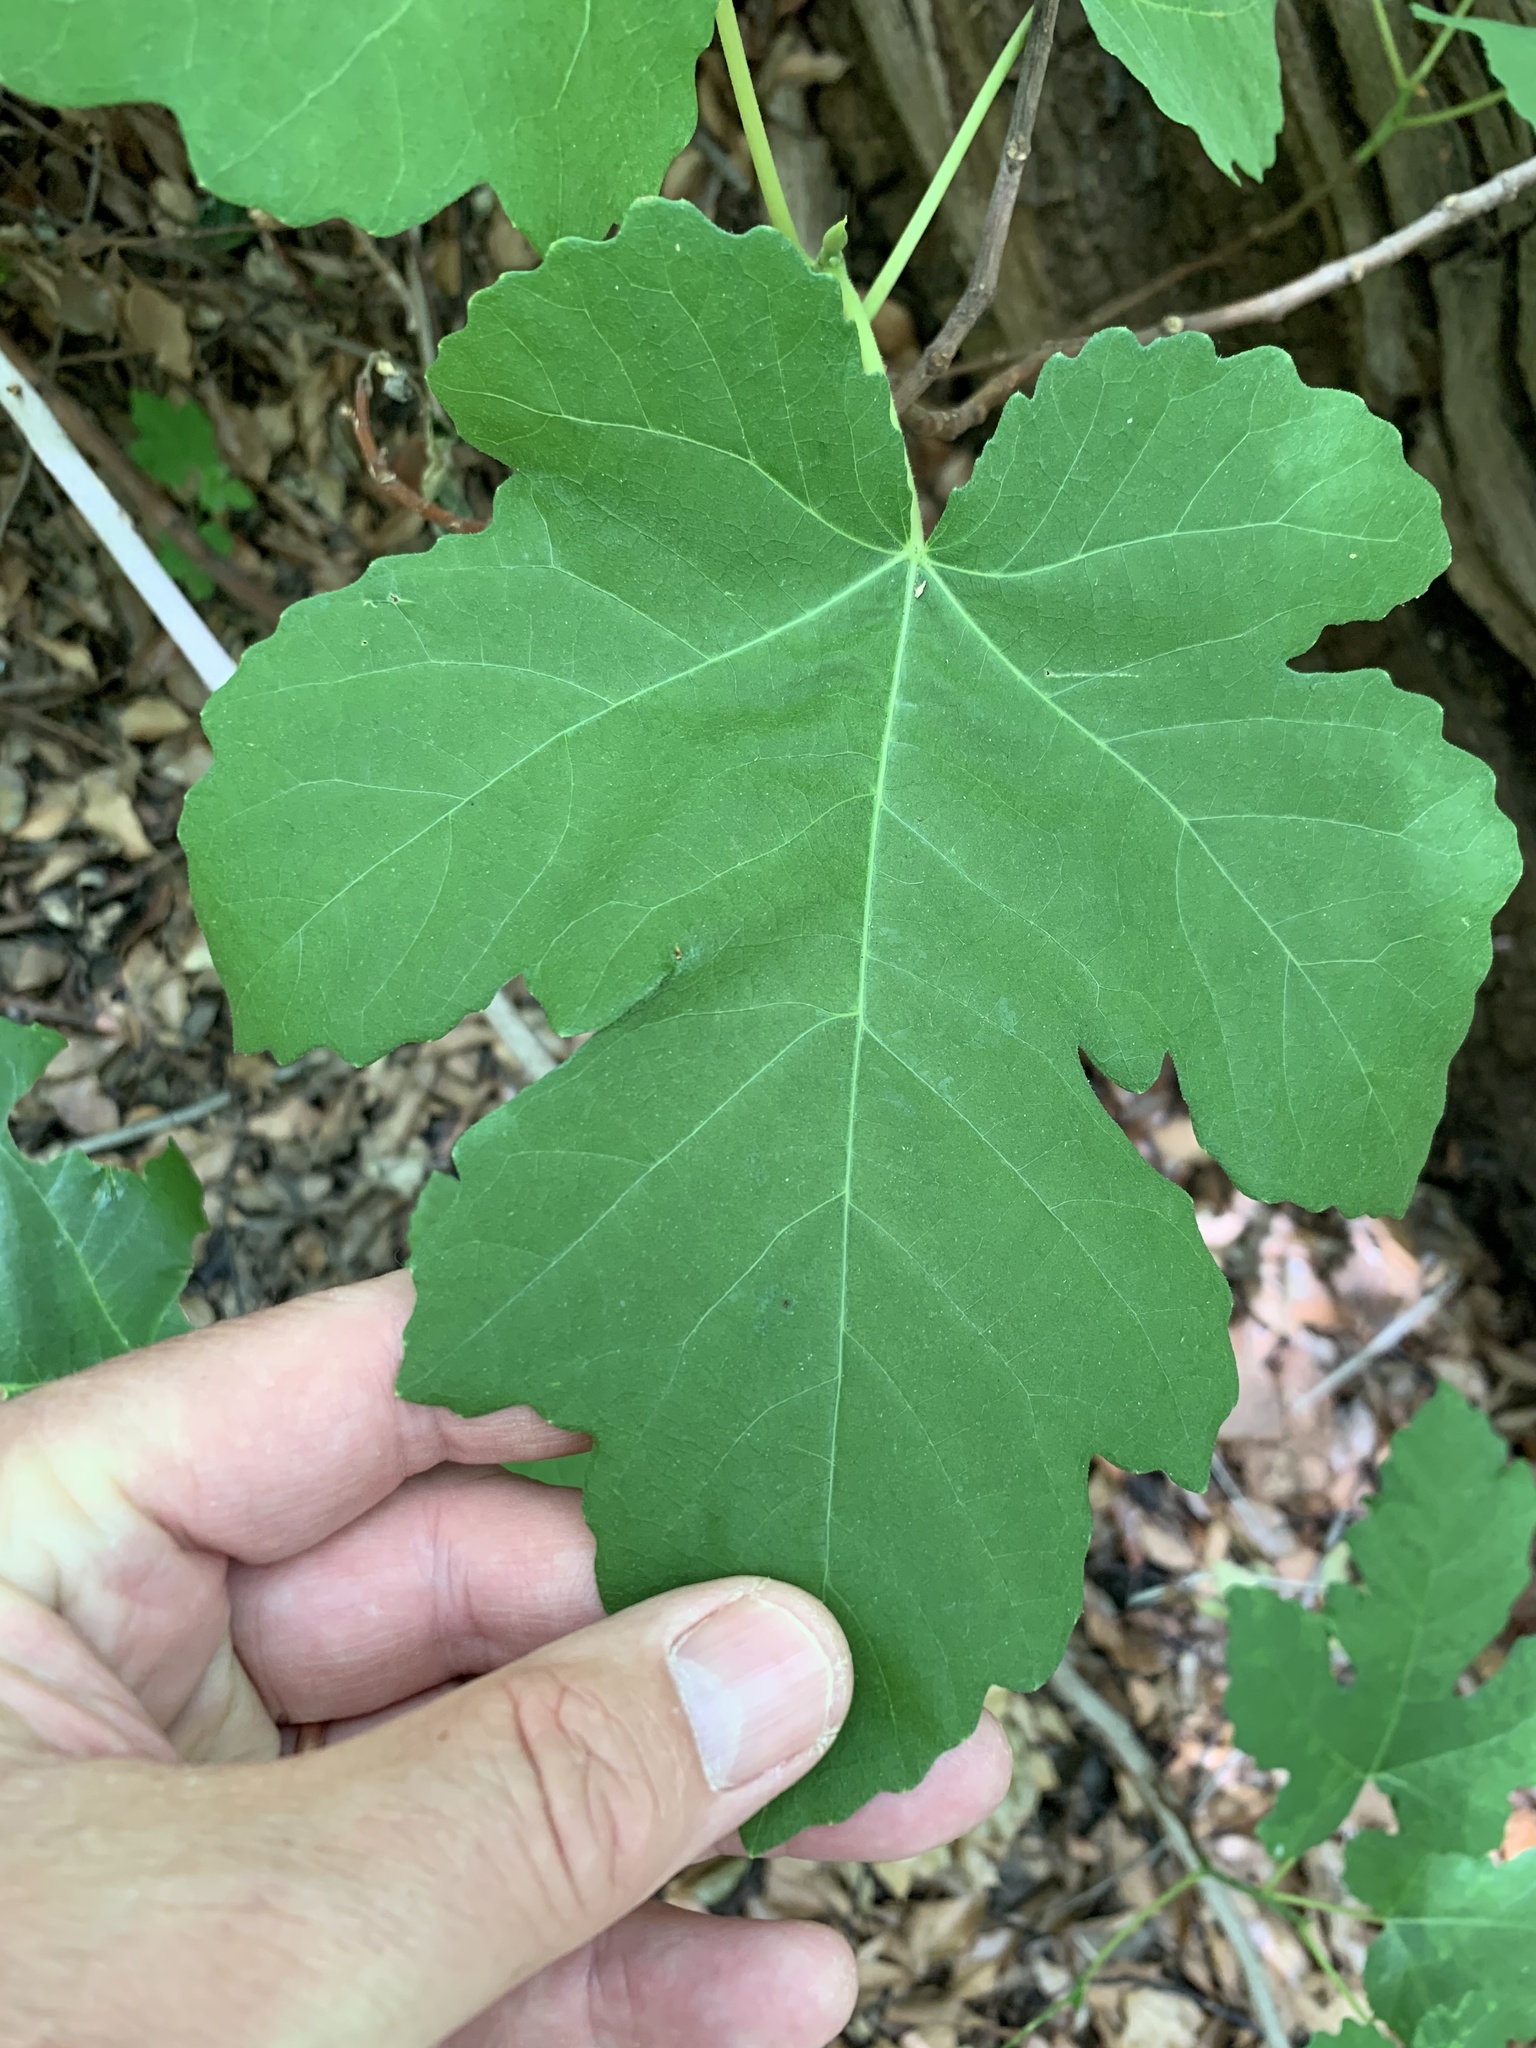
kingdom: Plantae
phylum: Tracheophyta
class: Magnoliopsida
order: Rosales
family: Moraceae
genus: Ficus
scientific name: Ficus carica
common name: Fig
